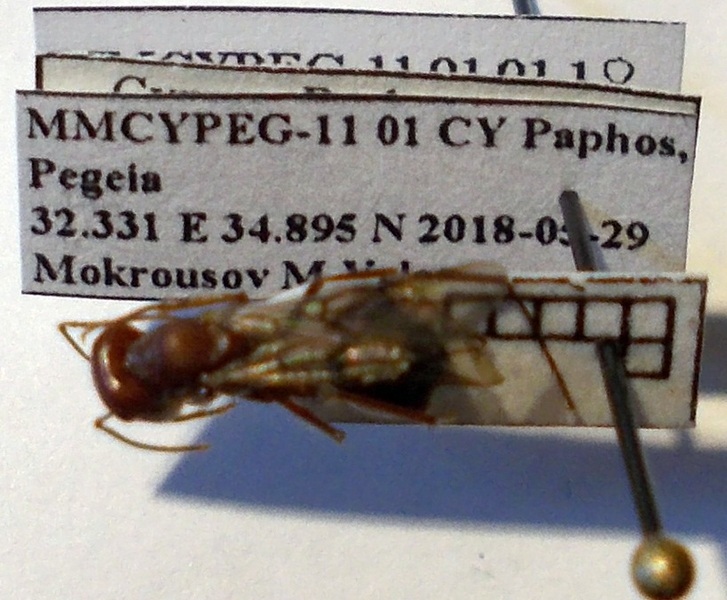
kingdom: Animalia
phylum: Arthropoda
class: Insecta
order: Hymenoptera
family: Formicidae
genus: Cataglyphis
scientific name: Cataglyphis aphrodite
